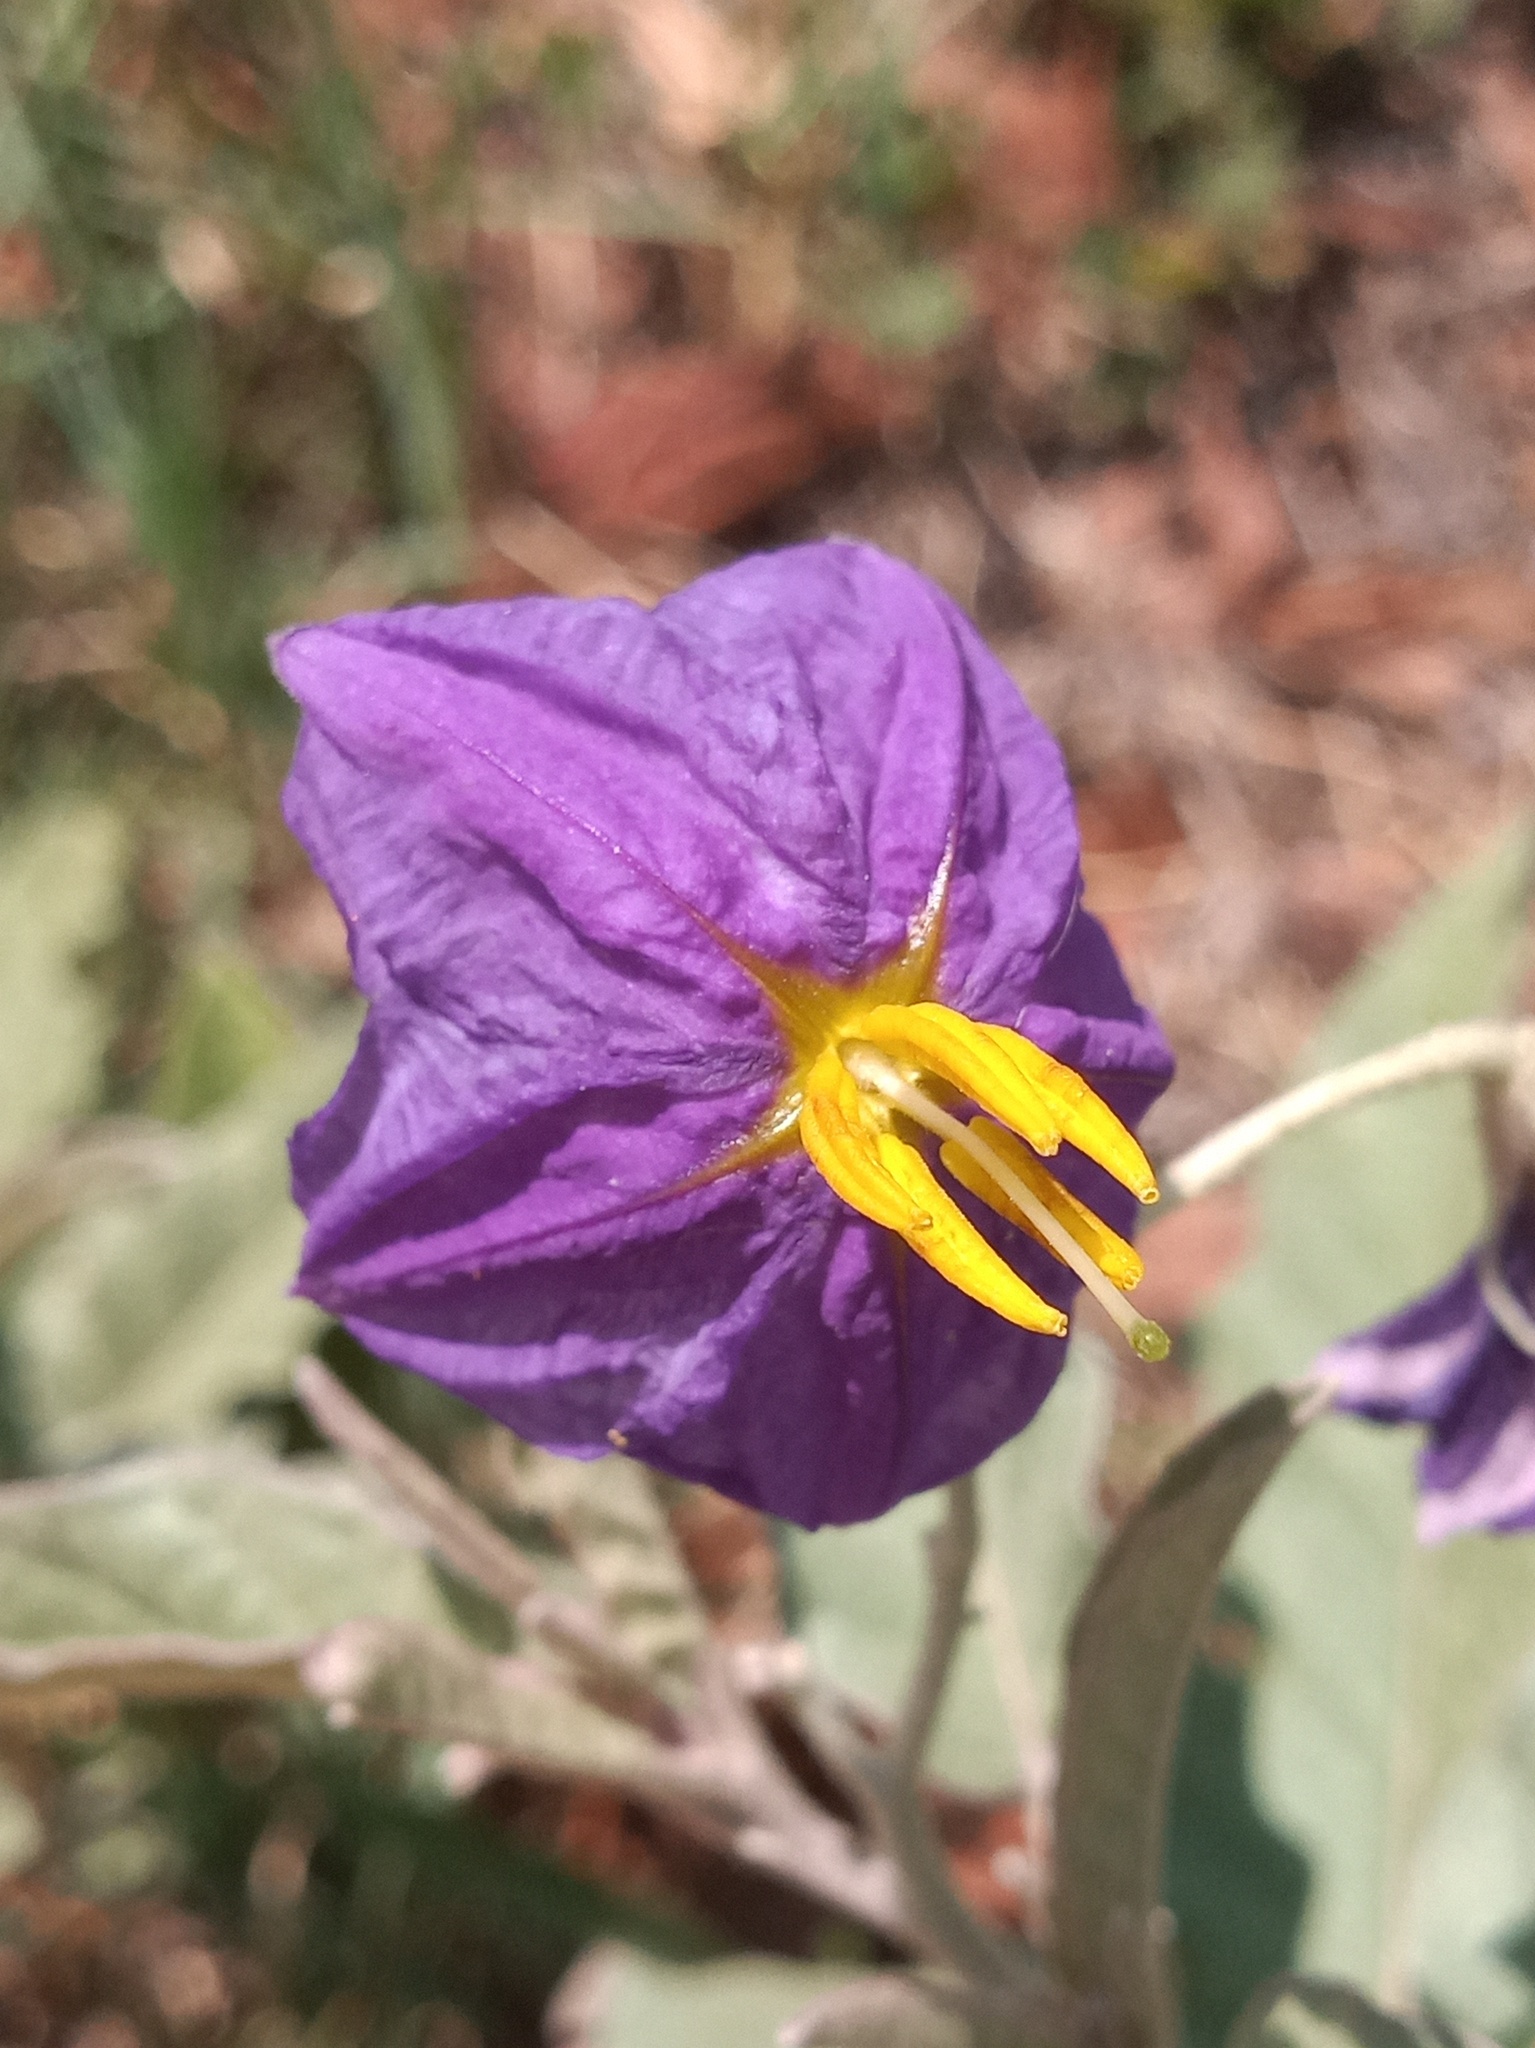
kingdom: Plantae
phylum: Tracheophyta
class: Magnoliopsida
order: Solanales
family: Solanaceae
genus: Solanum
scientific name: Solanum elaeagnifolium
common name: Silverleaf nightshade
